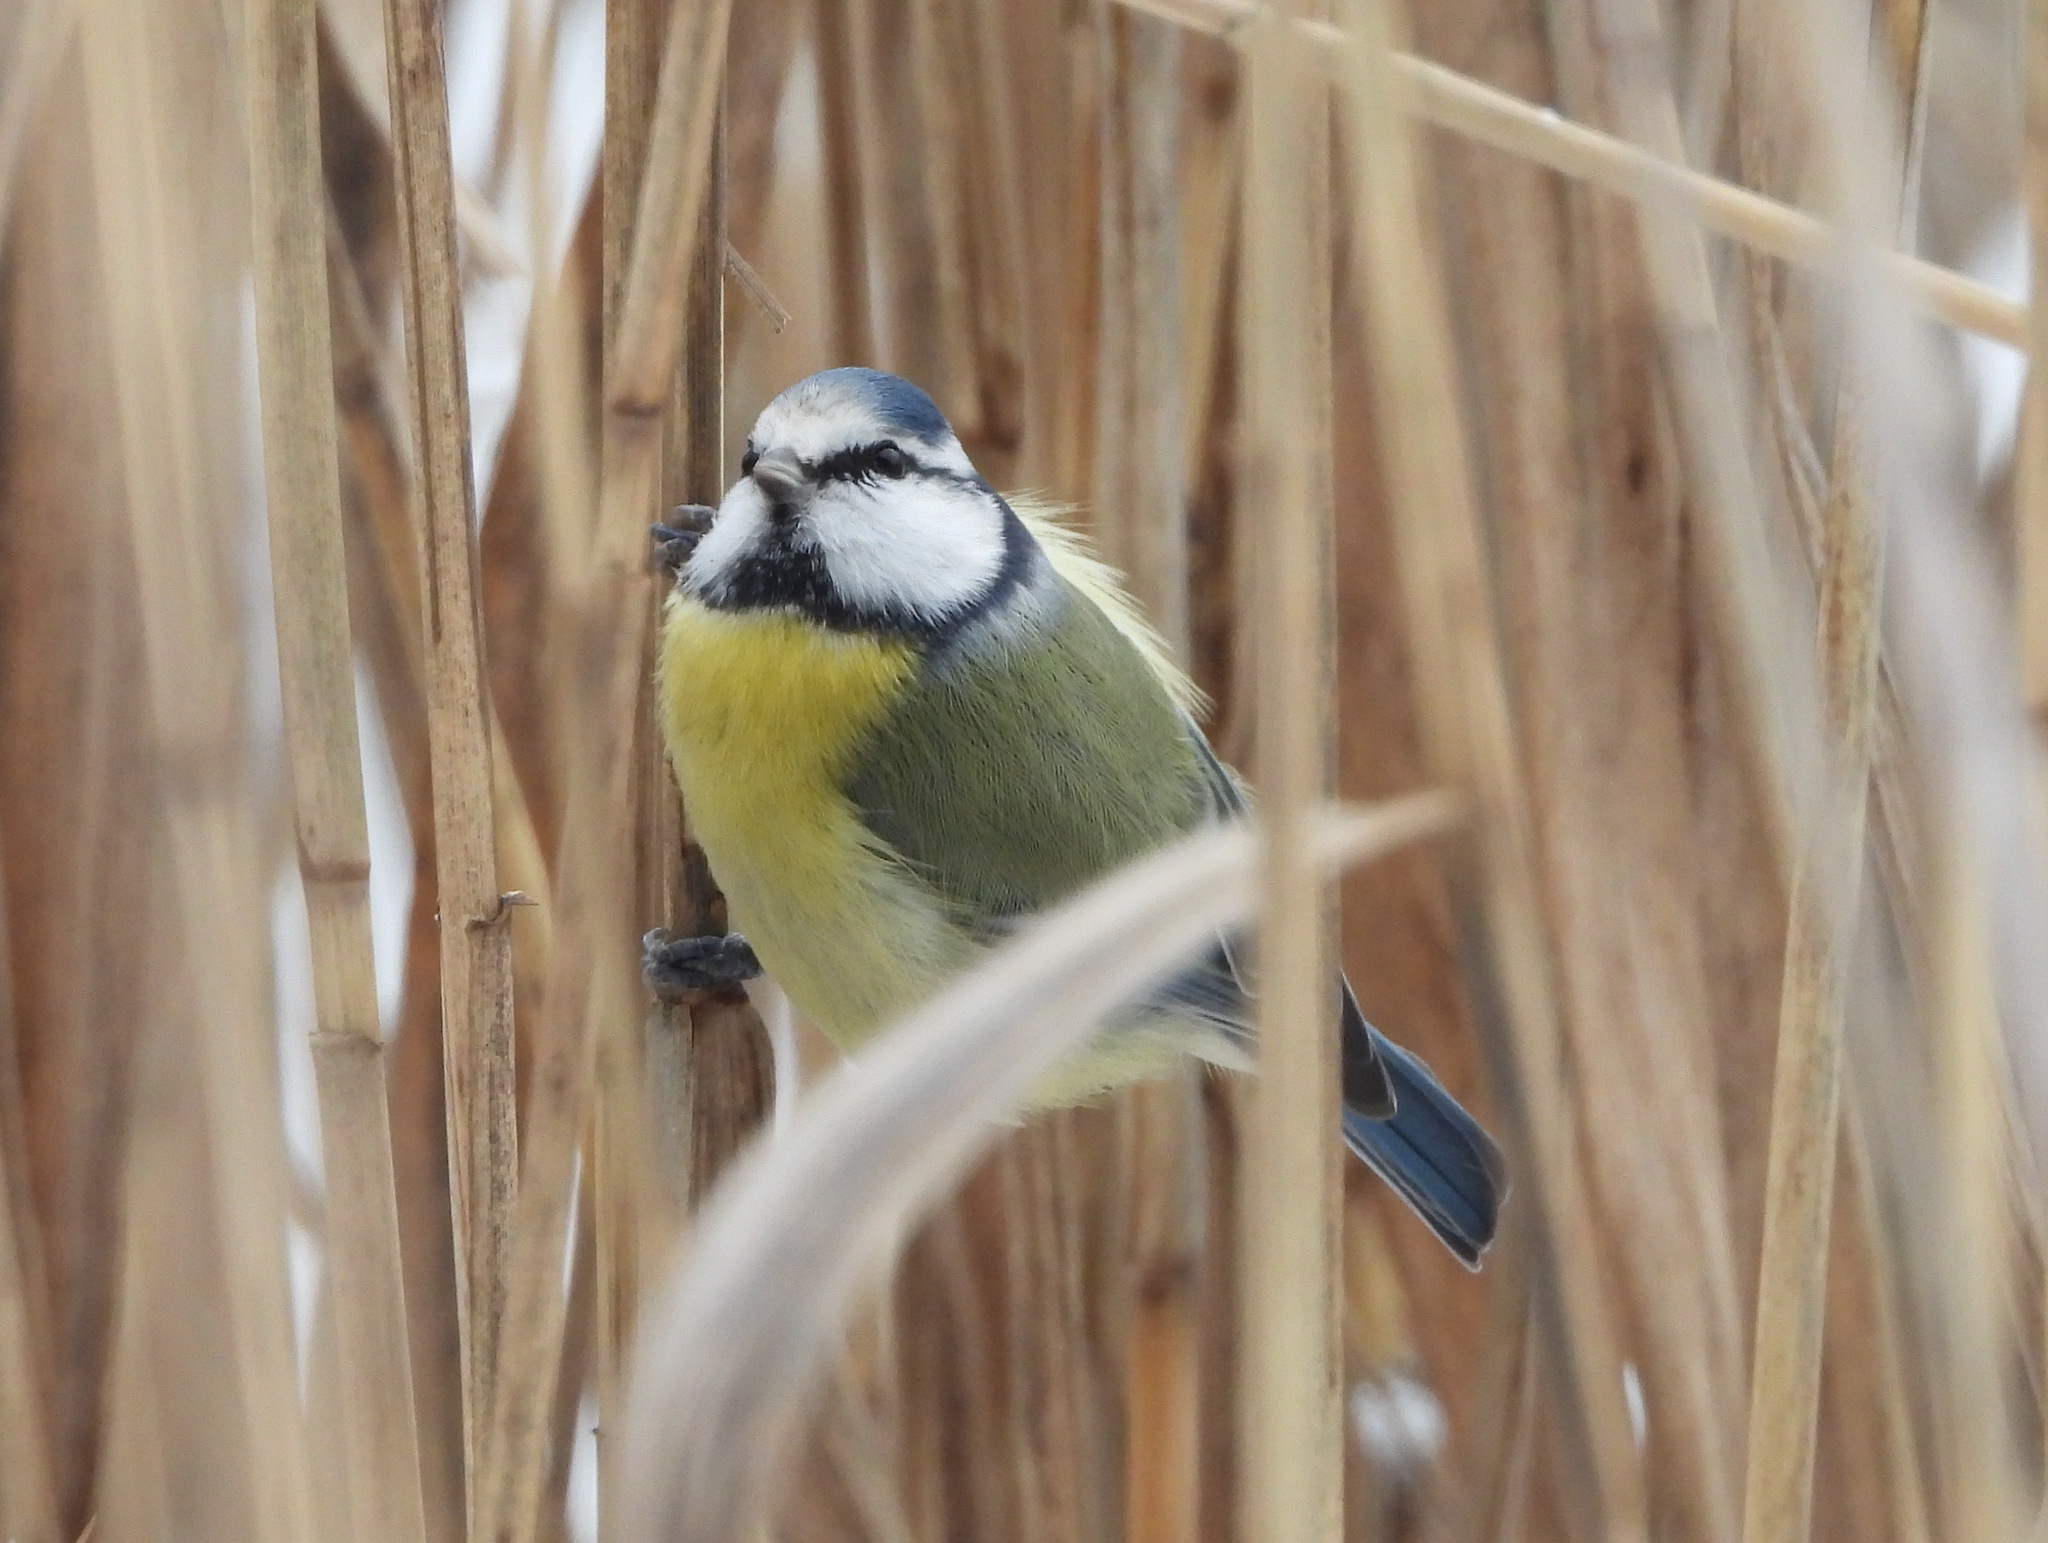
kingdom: Animalia
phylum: Chordata
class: Aves
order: Passeriformes
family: Paridae
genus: Cyanistes
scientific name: Cyanistes caeruleus
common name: Eurasian blue tit
